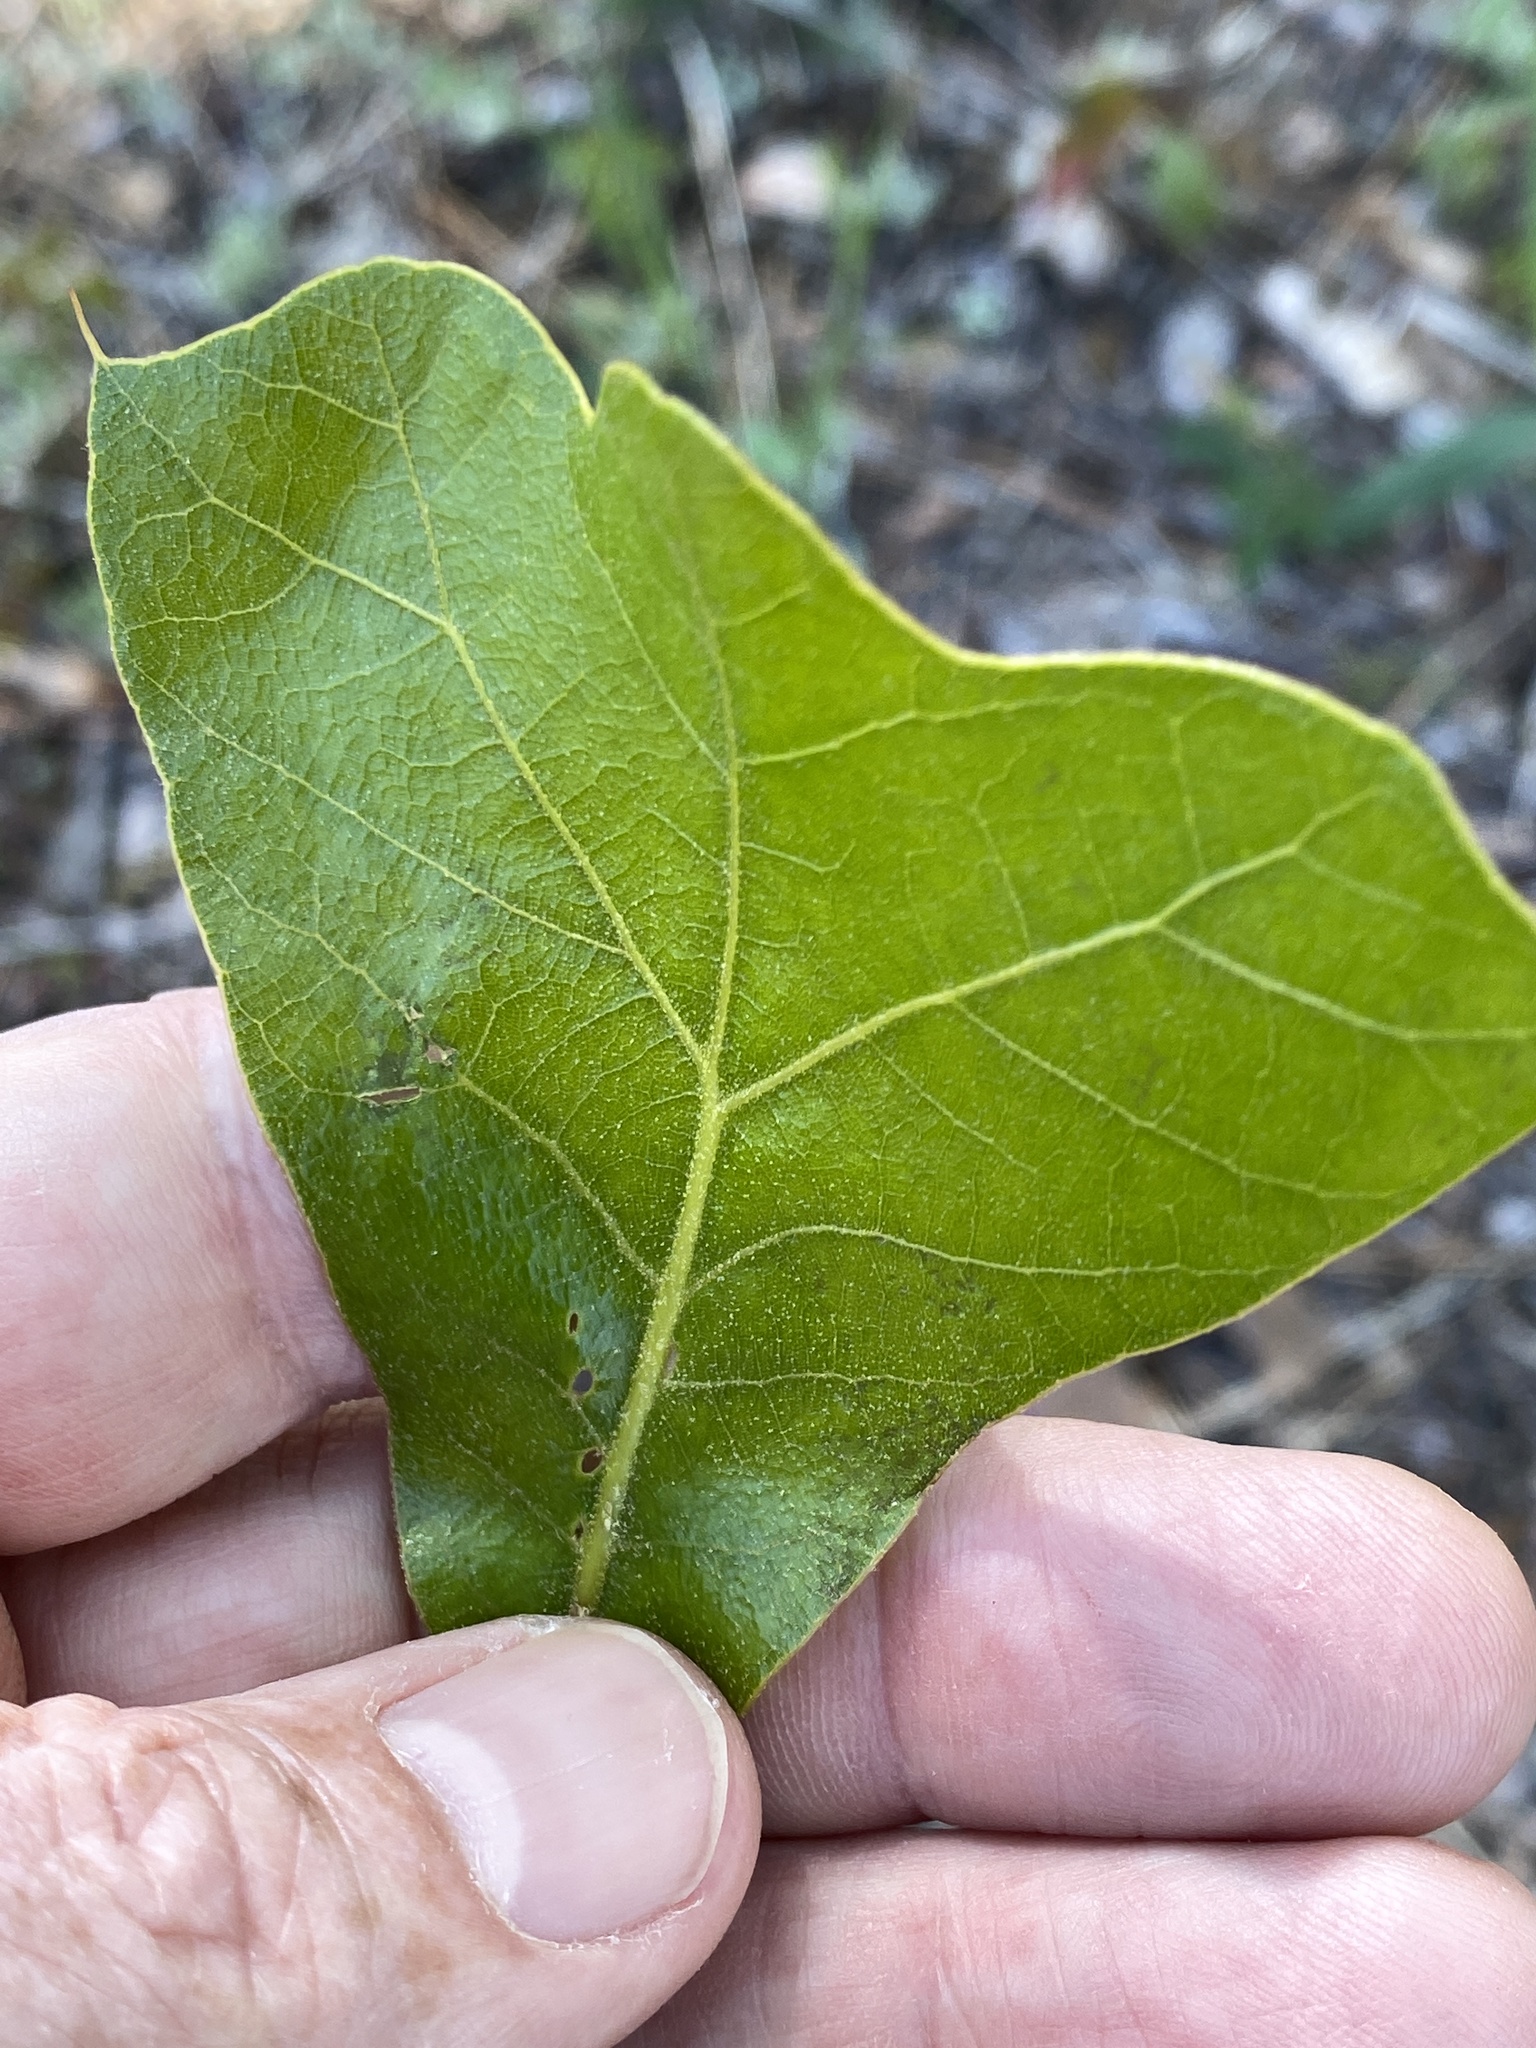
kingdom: Plantae
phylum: Tracheophyta
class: Magnoliopsida
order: Fagales
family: Fagaceae
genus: Quercus
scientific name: Quercus marilandica
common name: Blackjack oak
